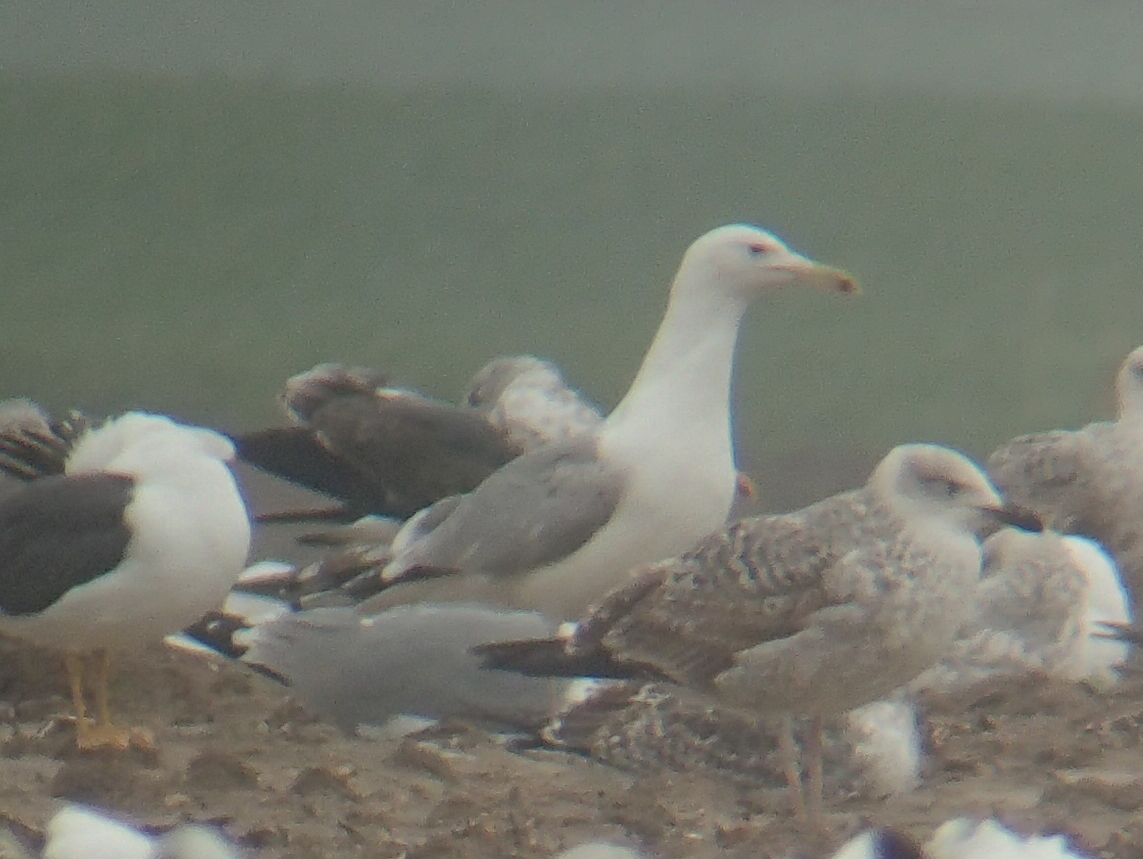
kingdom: Animalia
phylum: Chordata
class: Aves
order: Charadriiformes
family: Laridae
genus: Larus
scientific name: Larus cachinnans
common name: Caspian gull
